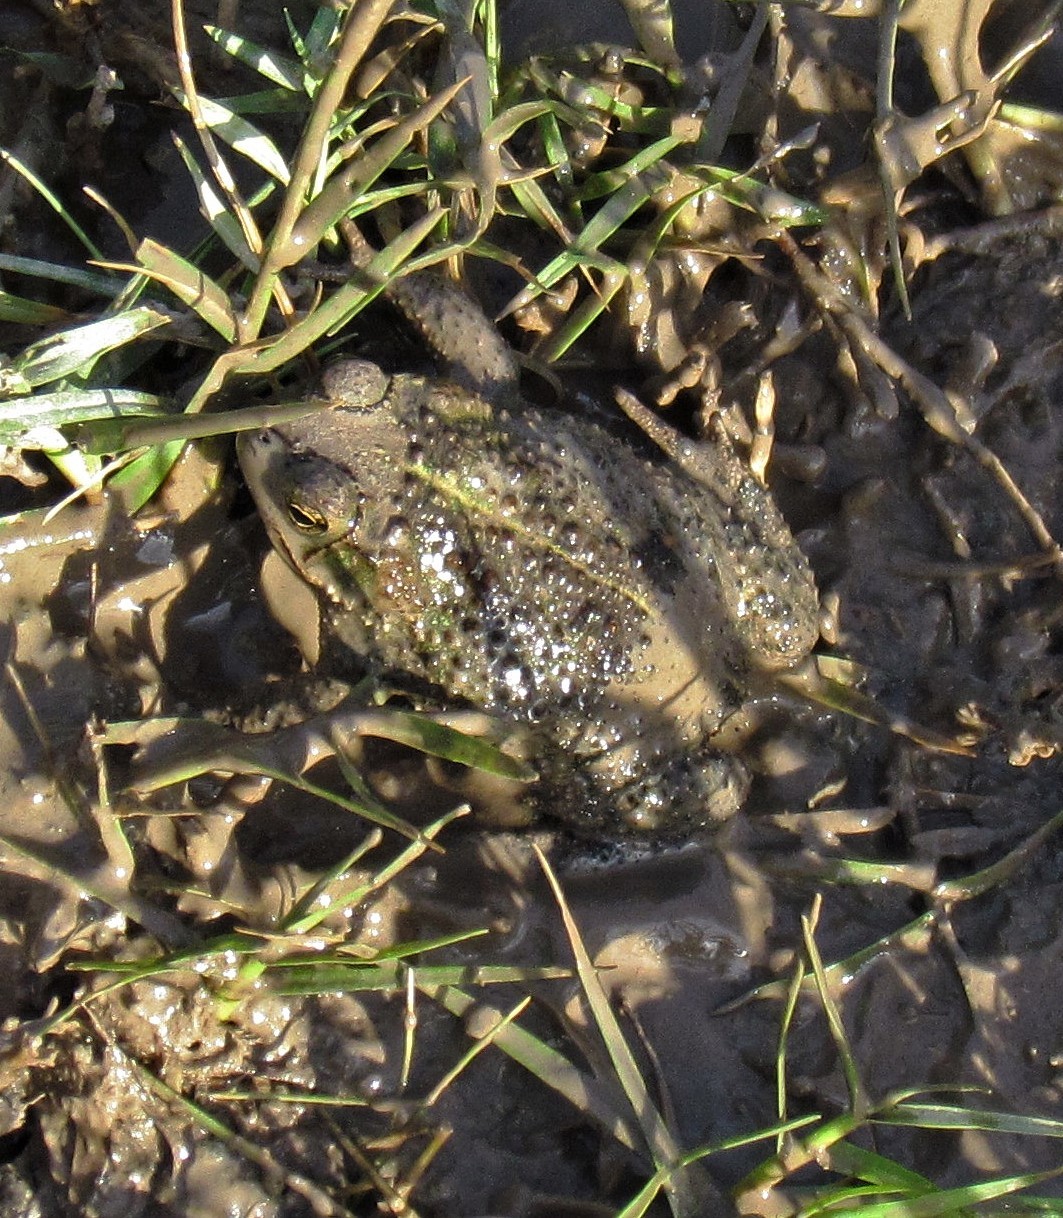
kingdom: Animalia
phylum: Chordata
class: Amphibia
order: Anura
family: Bufonidae
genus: Rhinella
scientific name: Rhinella dorbignyi
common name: D´orbigny’s toad
